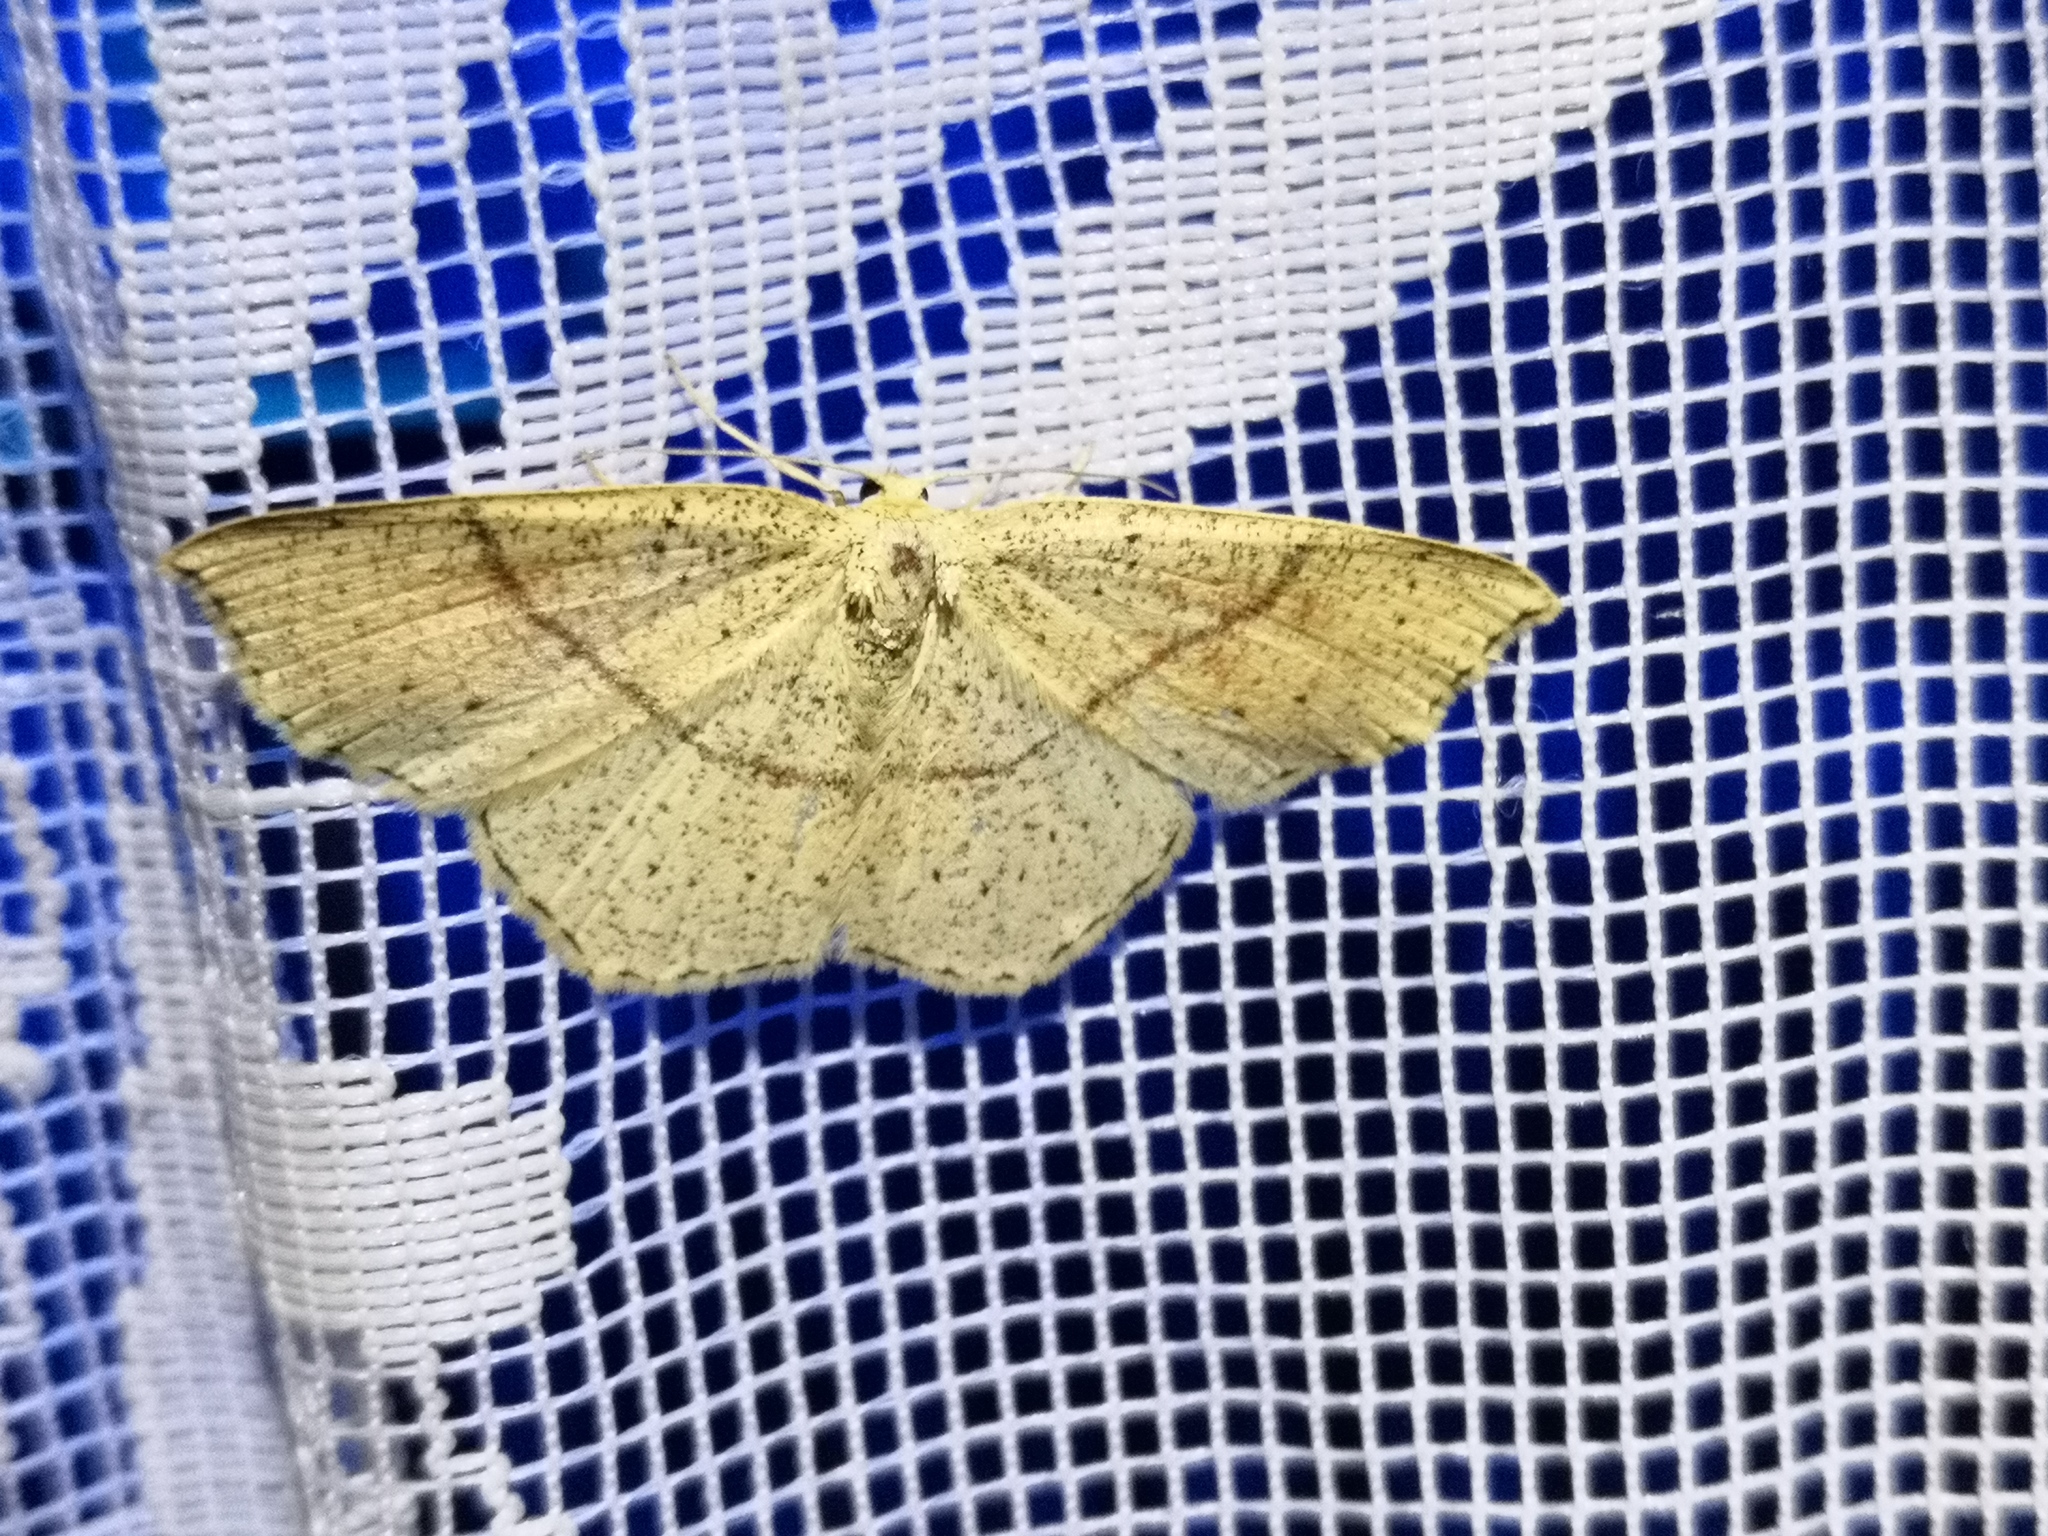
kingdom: Animalia
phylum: Arthropoda
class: Insecta
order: Lepidoptera
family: Geometridae
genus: Cyclophora
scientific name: Cyclophora punctaria
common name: Maiden's blush
